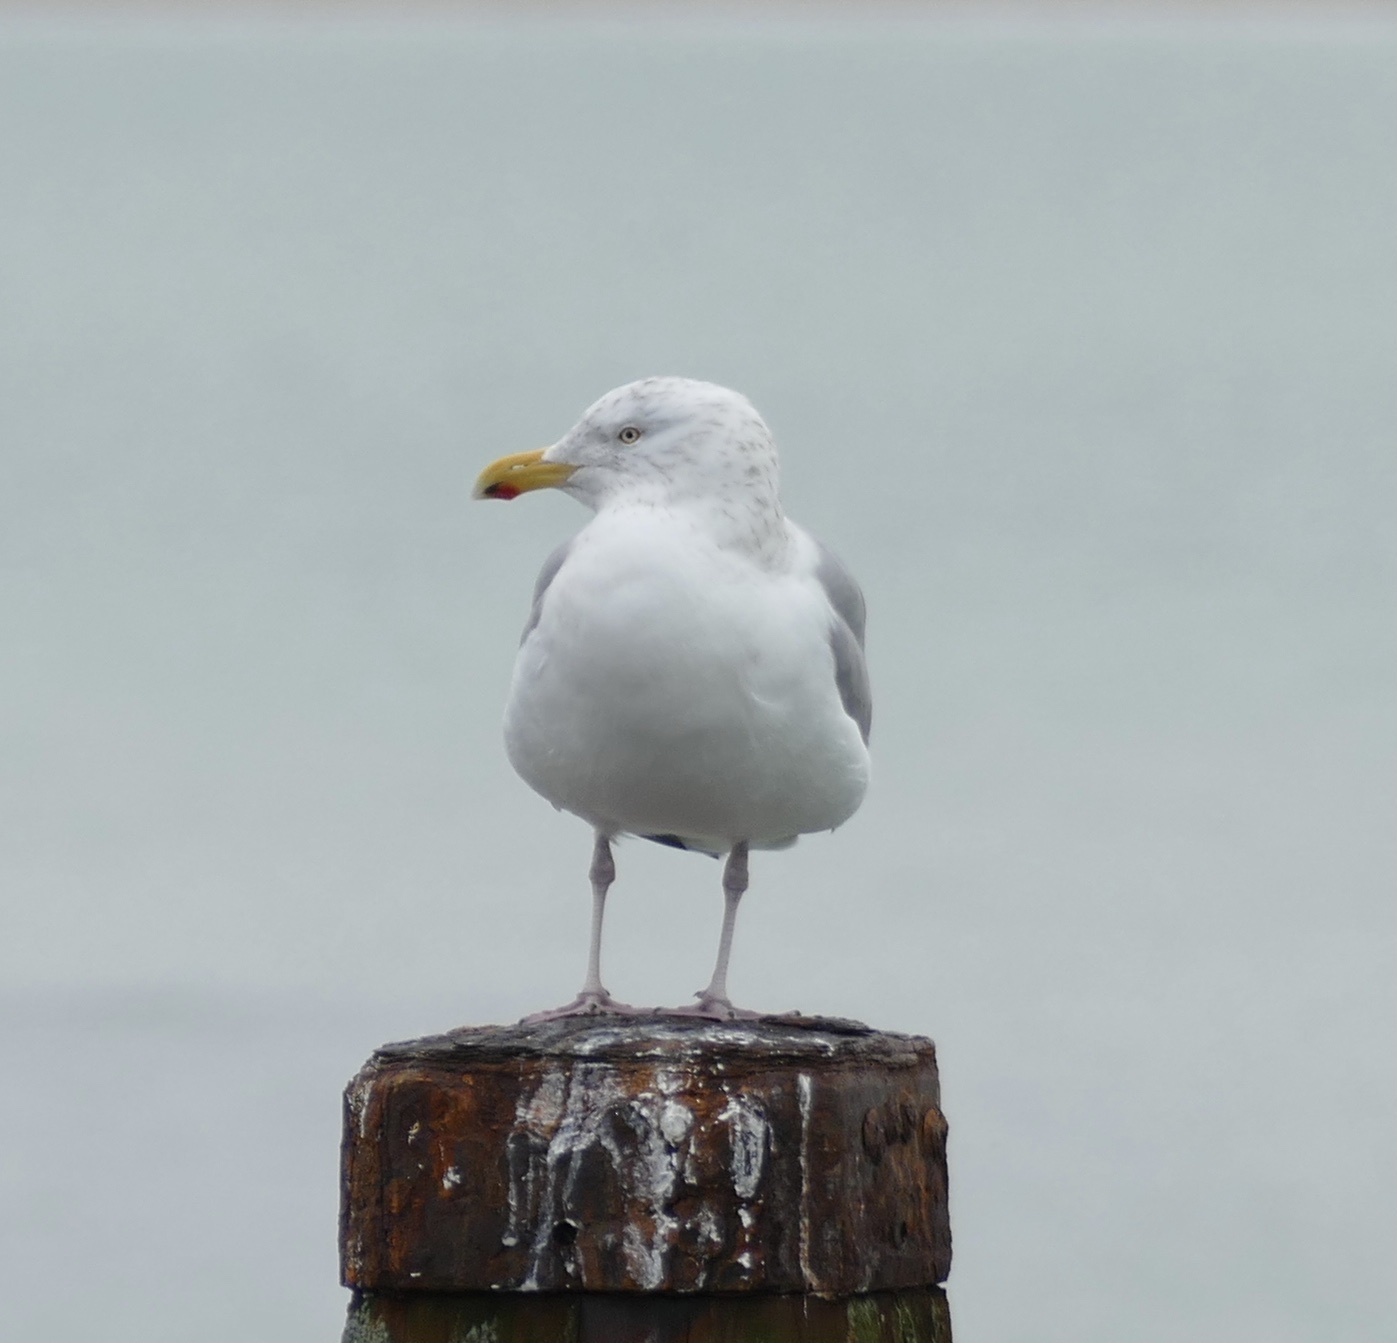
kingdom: Animalia
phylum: Chordata
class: Aves
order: Charadriiformes
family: Laridae
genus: Larus
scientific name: Larus argentatus
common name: Herring gull
